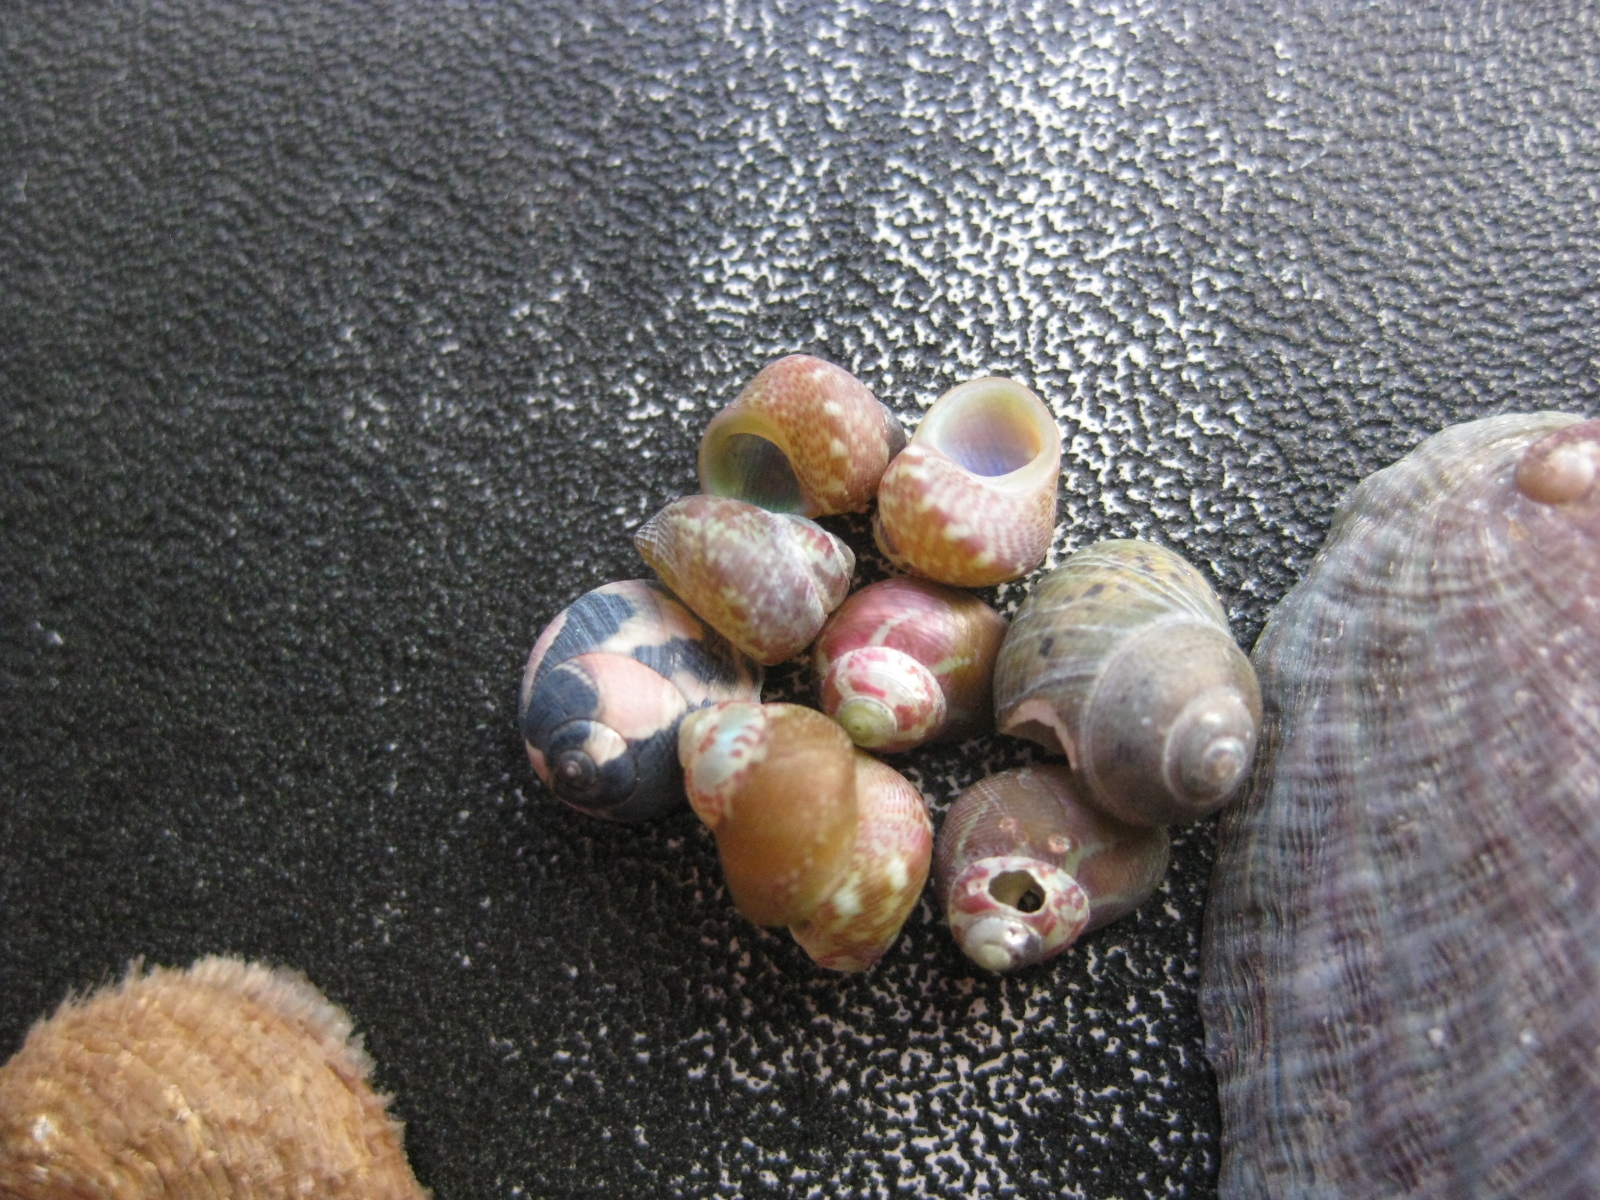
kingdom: Animalia
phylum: Mollusca
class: Gastropoda
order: Trochida
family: Trochidae
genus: Cantharidus
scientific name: Cantharidus dilatatus
